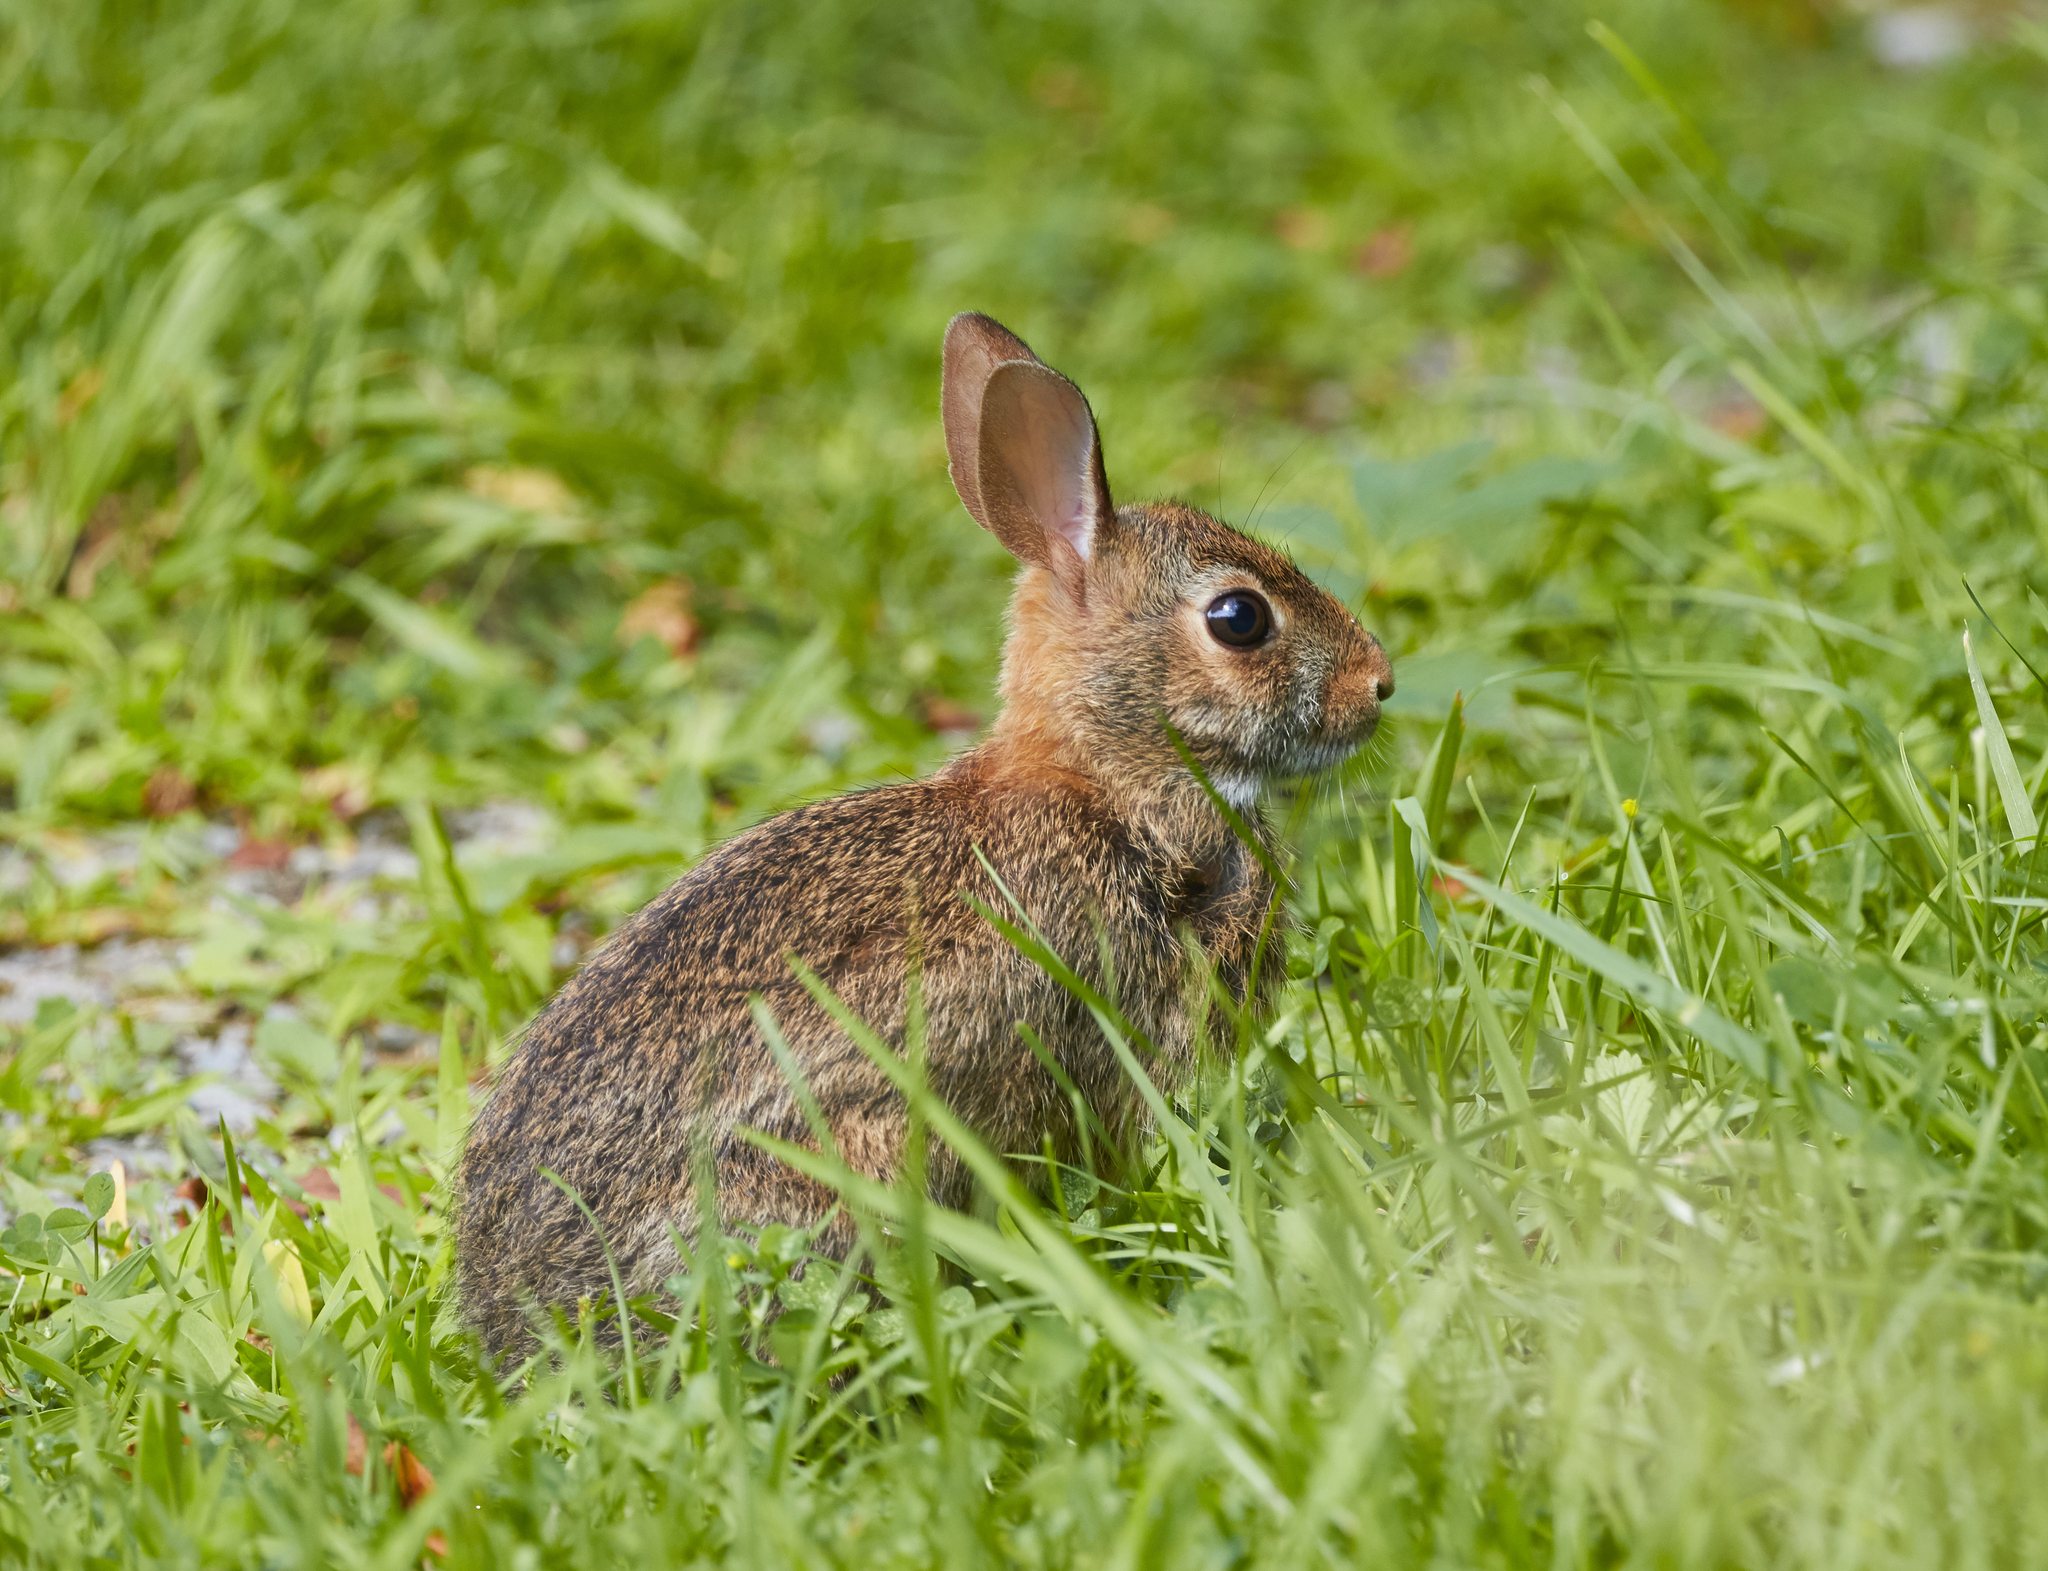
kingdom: Animalia
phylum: Chordata
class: Mammalia
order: Lagomorpha
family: Leporidae
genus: Sylvilagus
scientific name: Sylvilagus floridanus
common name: Eastern cottontail
